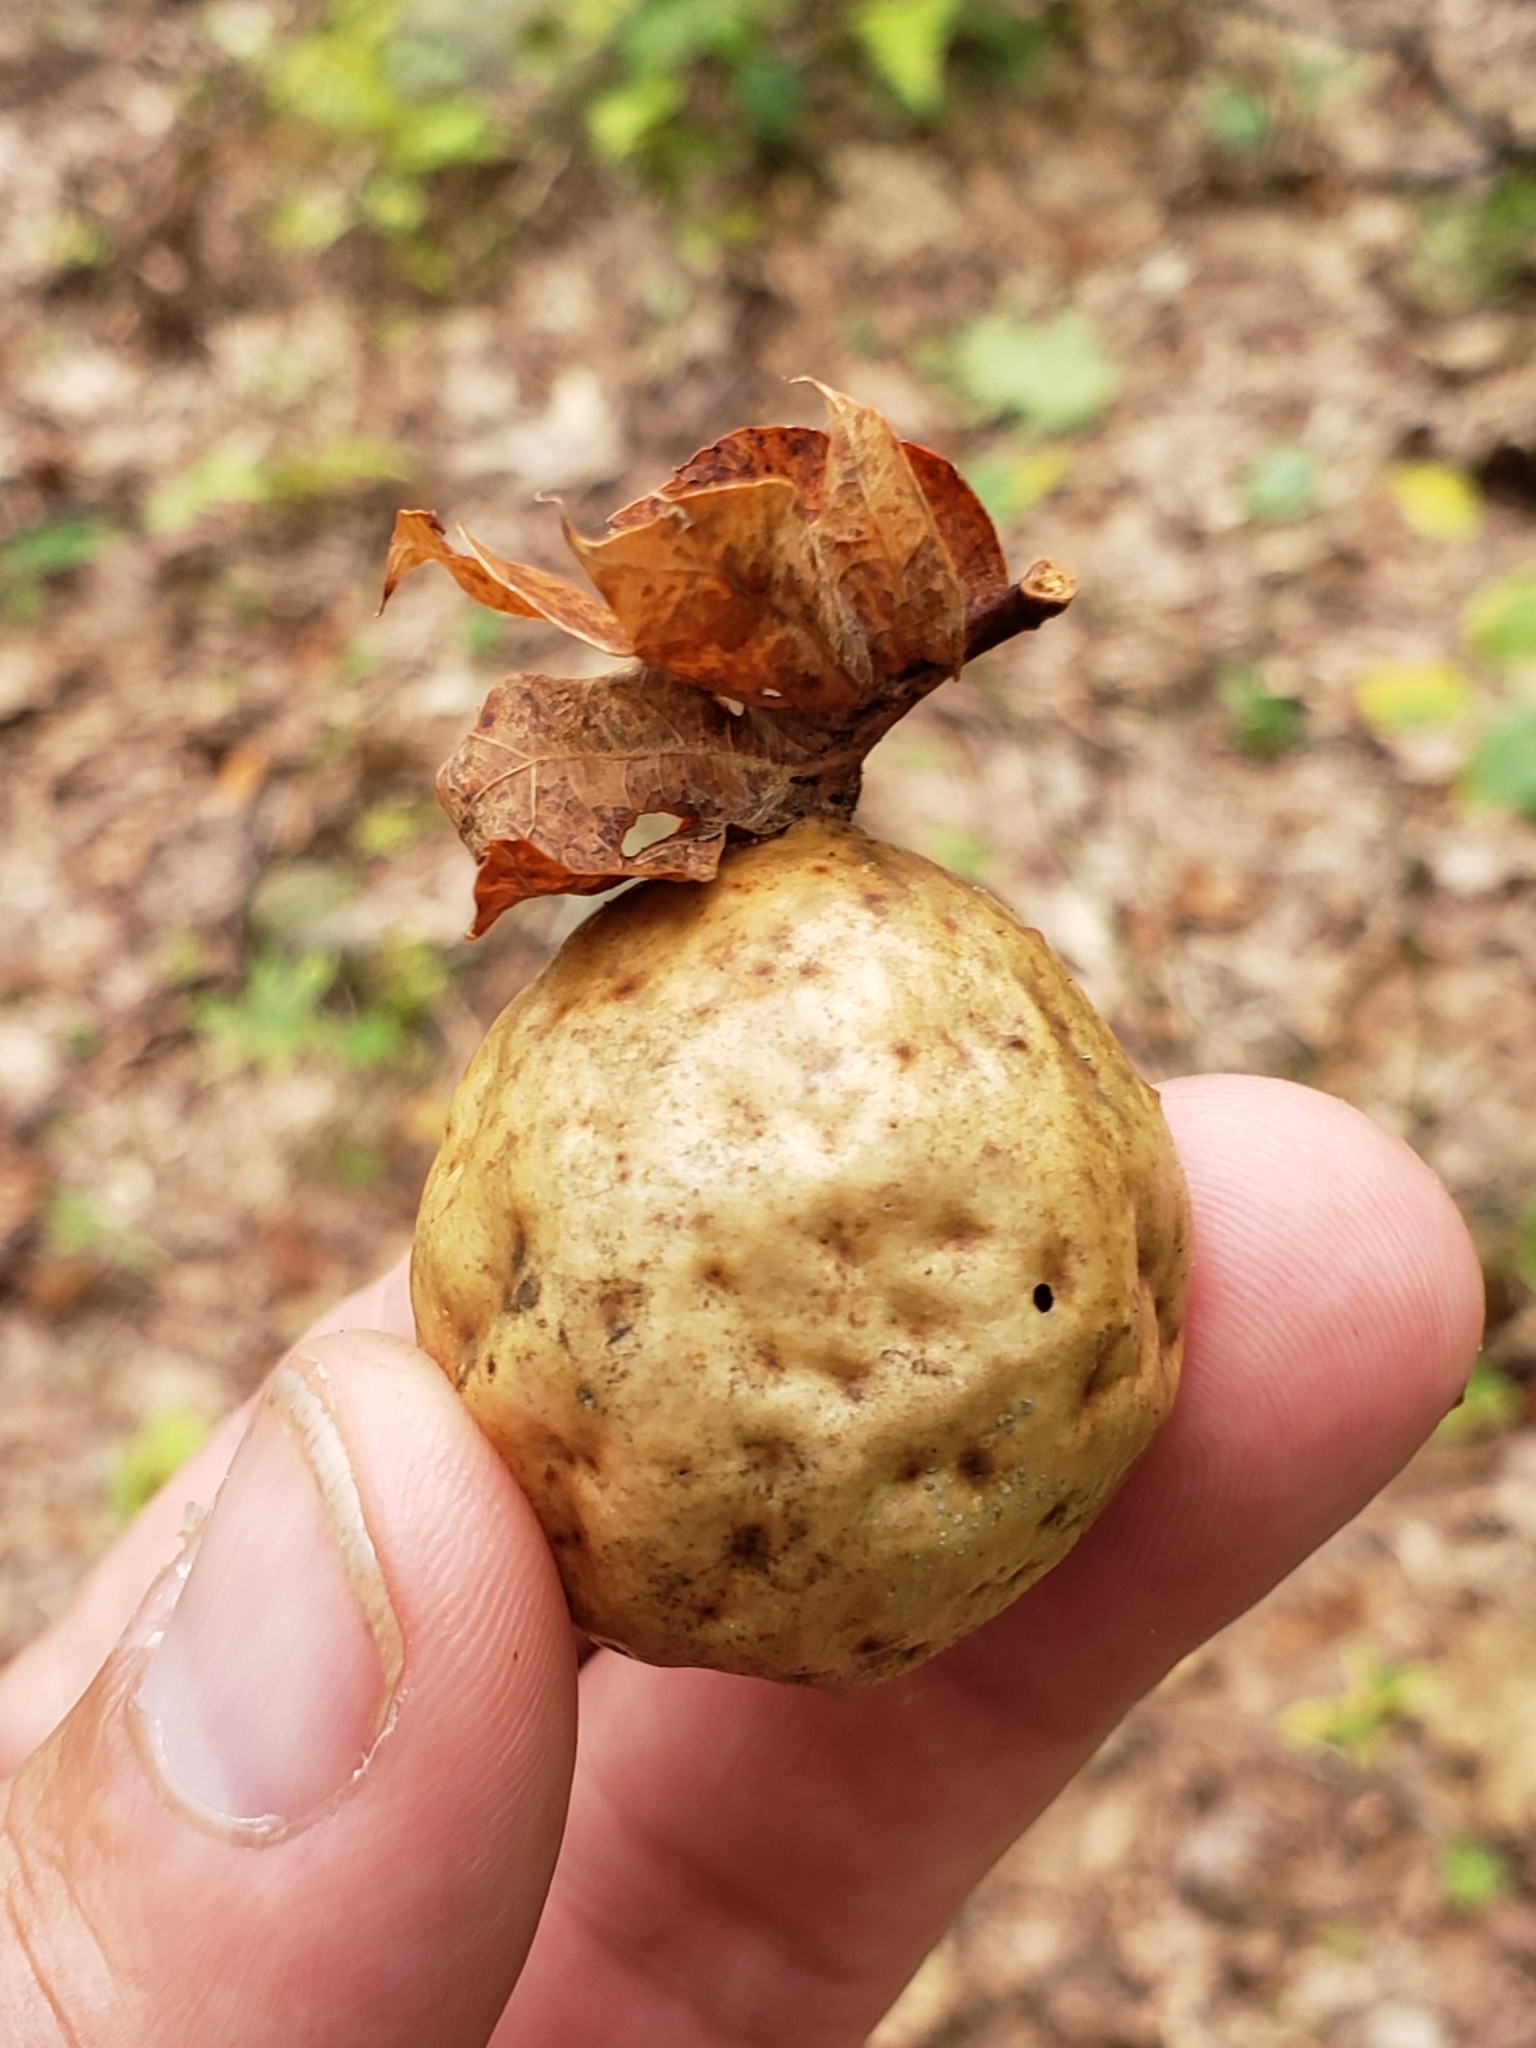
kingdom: Animalia
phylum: Arthropoda
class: Insecta
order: Hymenoptera
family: Cynipidae
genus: Amphibolips
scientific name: Amphibolips
